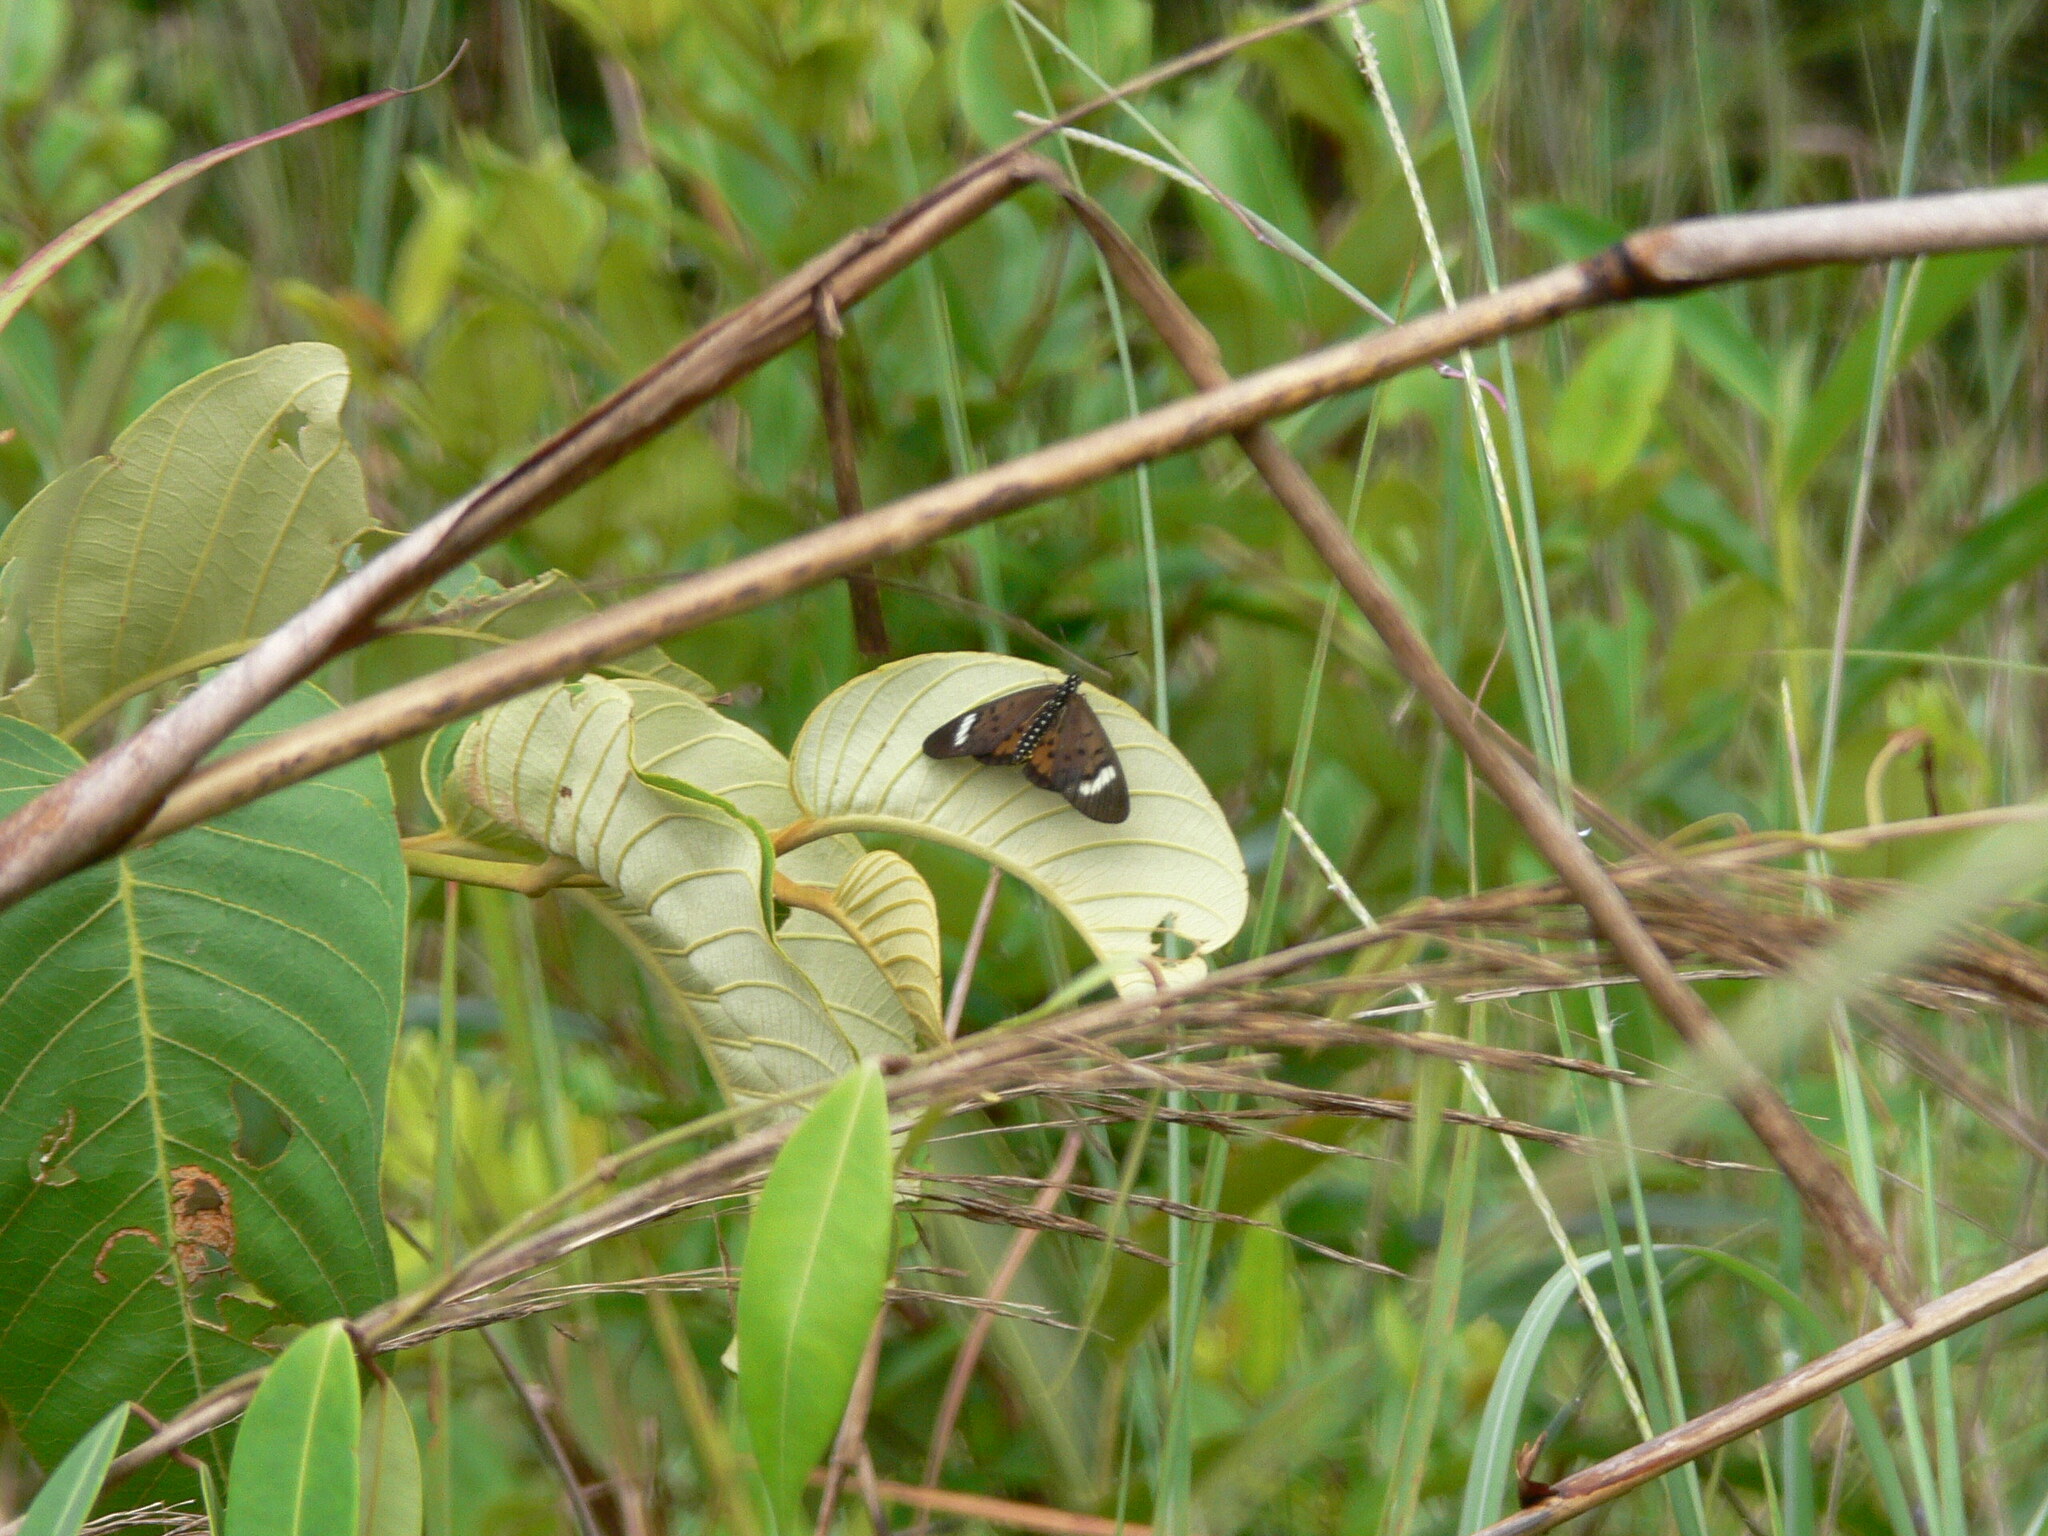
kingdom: Animalia
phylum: Arthropoda
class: Insecta
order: Lepidoptera
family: Nymphalidae
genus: Rubraea
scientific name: Rubraea
